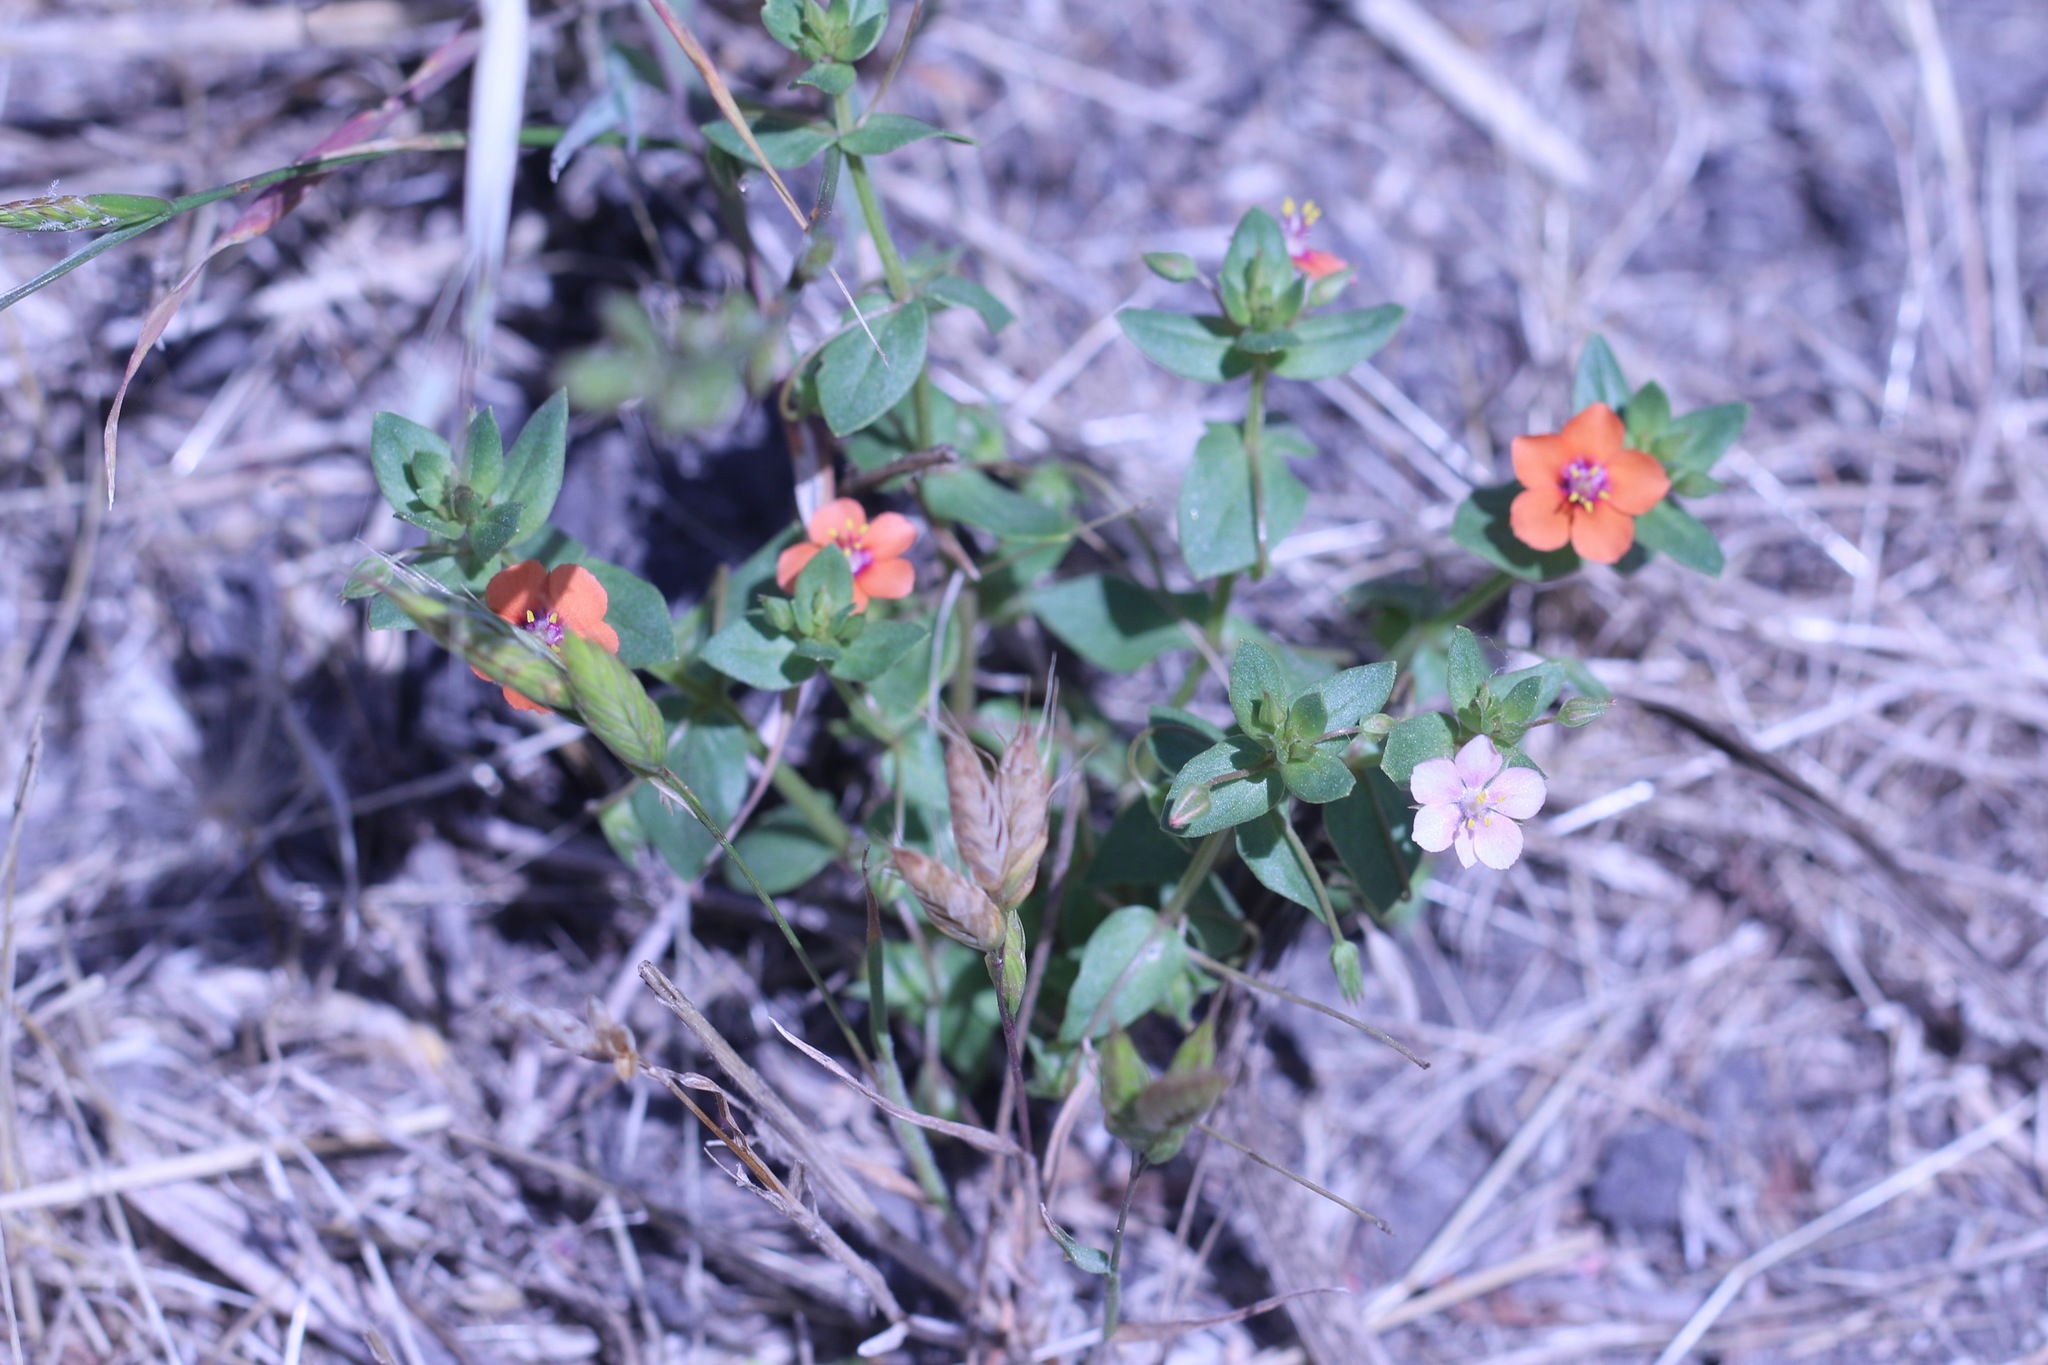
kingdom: Plantae
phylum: Tracheophyta
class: Magnoliopsida
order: Ericales
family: Primulaceae
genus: Lysimachia
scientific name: Lysimachia arvensis
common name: Scarlet pimpernel
